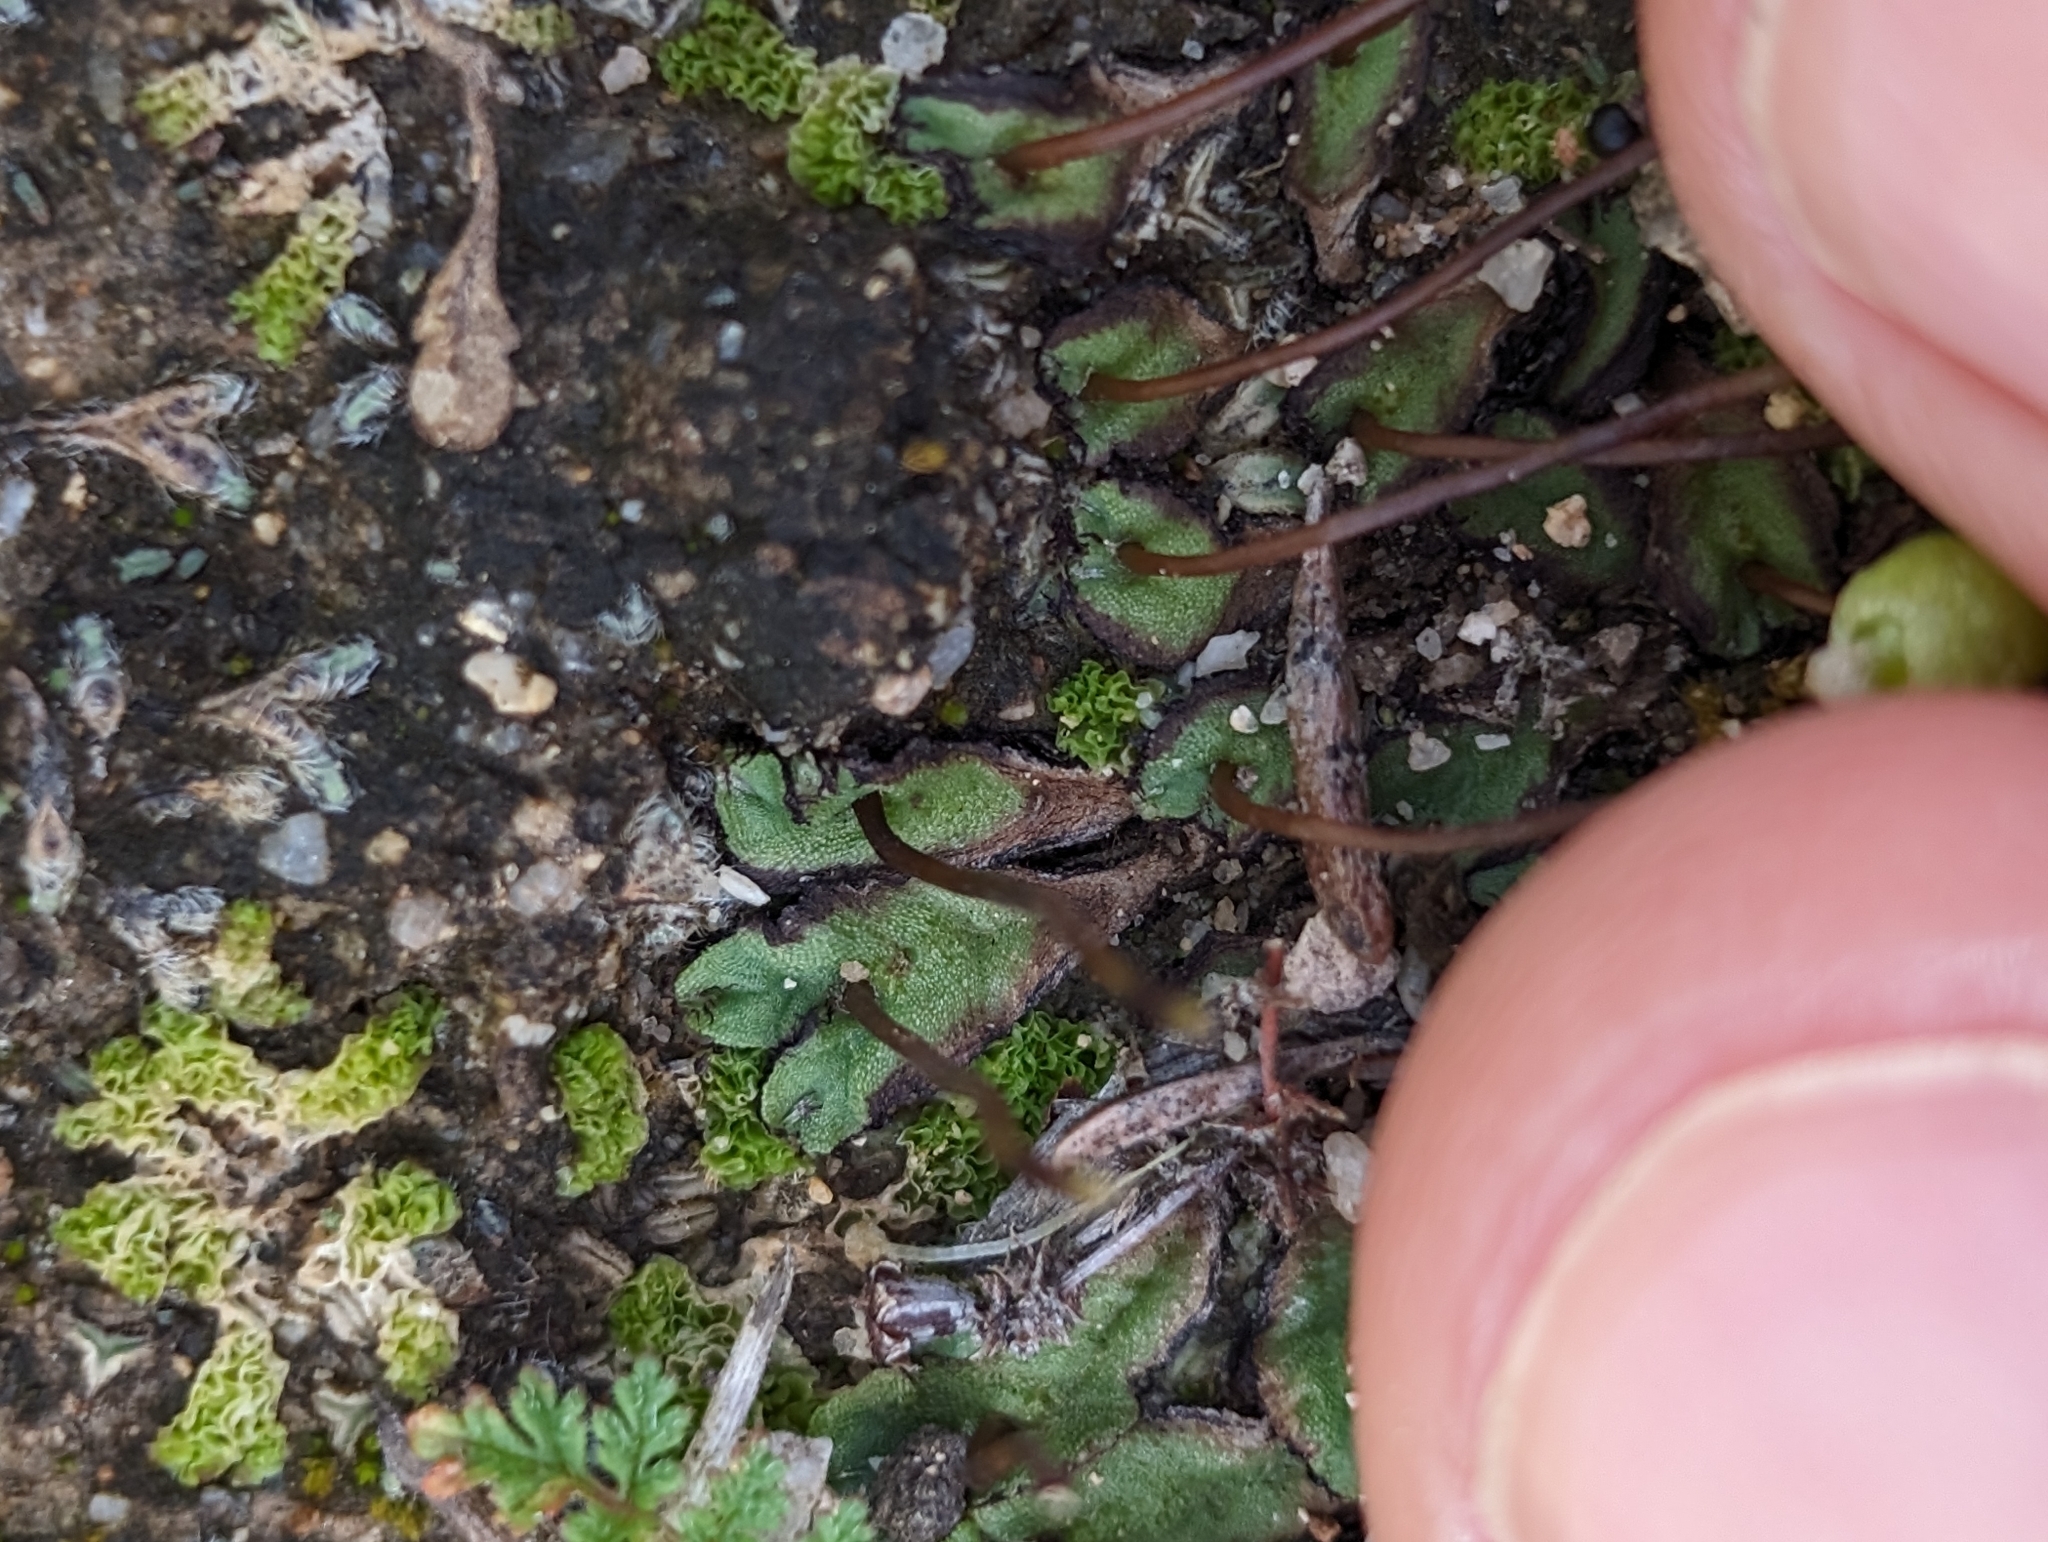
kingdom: Plantae
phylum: Marchantiophyta
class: Marchantiopsida
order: Marchantiales
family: Aytoniaceae
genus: Asterella
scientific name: Asterella palmeri
